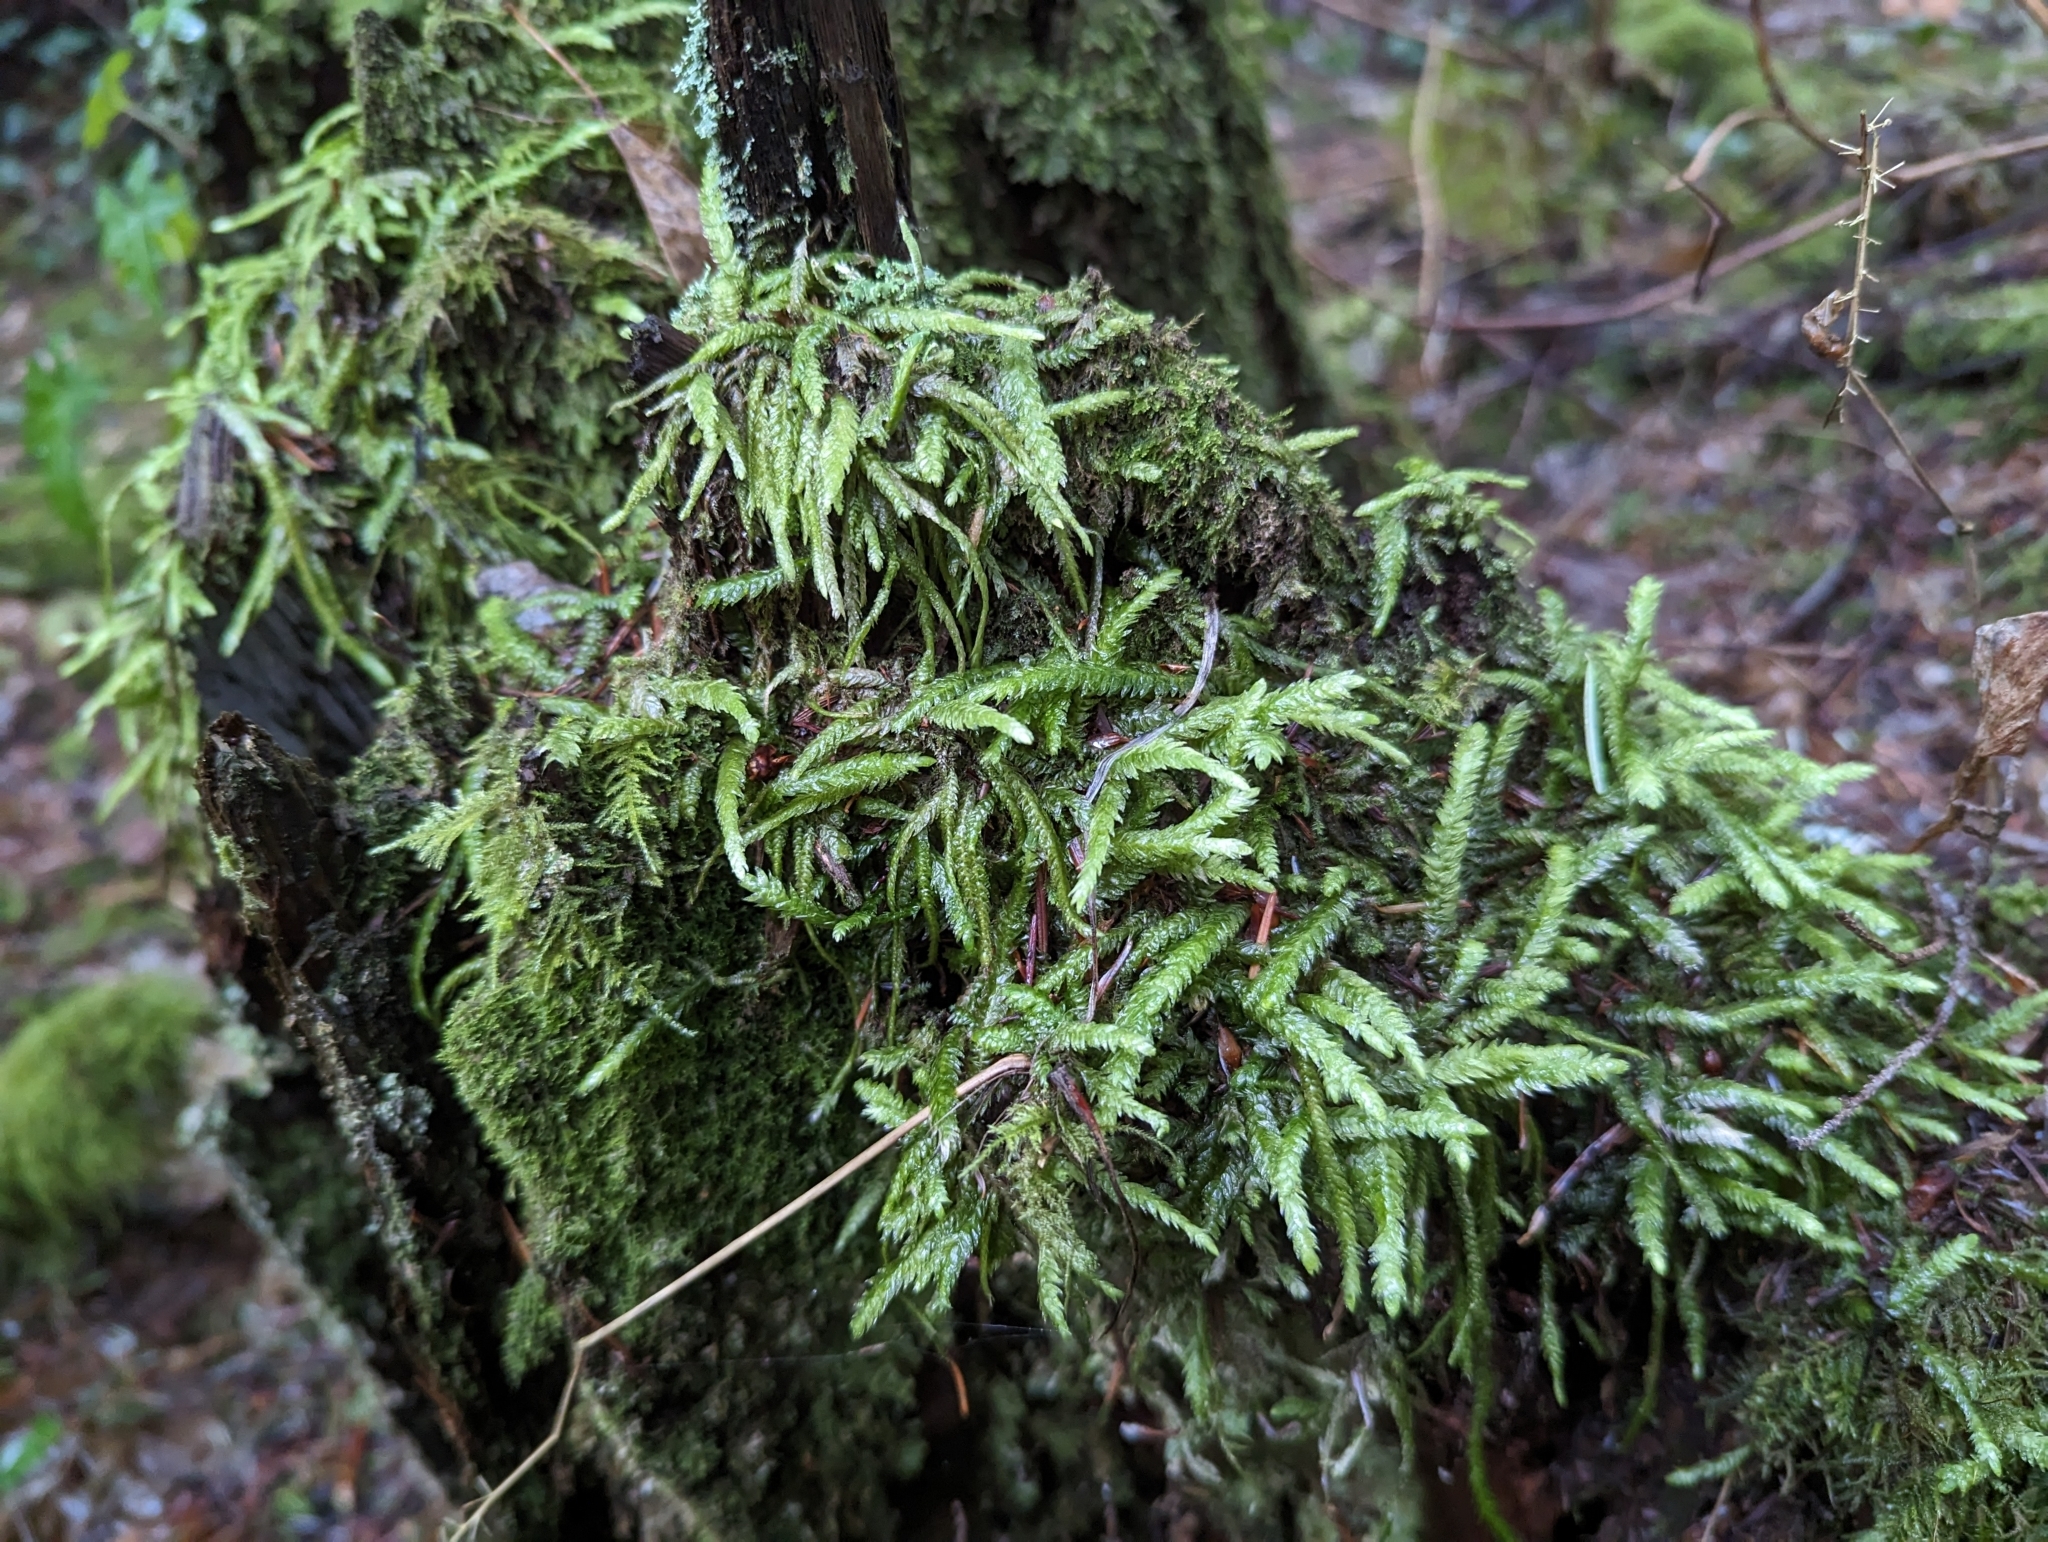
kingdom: Plantae
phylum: Bryophyta
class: Bryopsida
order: Hypnales
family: Plagiotheciaceae
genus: Plagiothecium
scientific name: Plagiothecium undulatum
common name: Waved silk-moss
